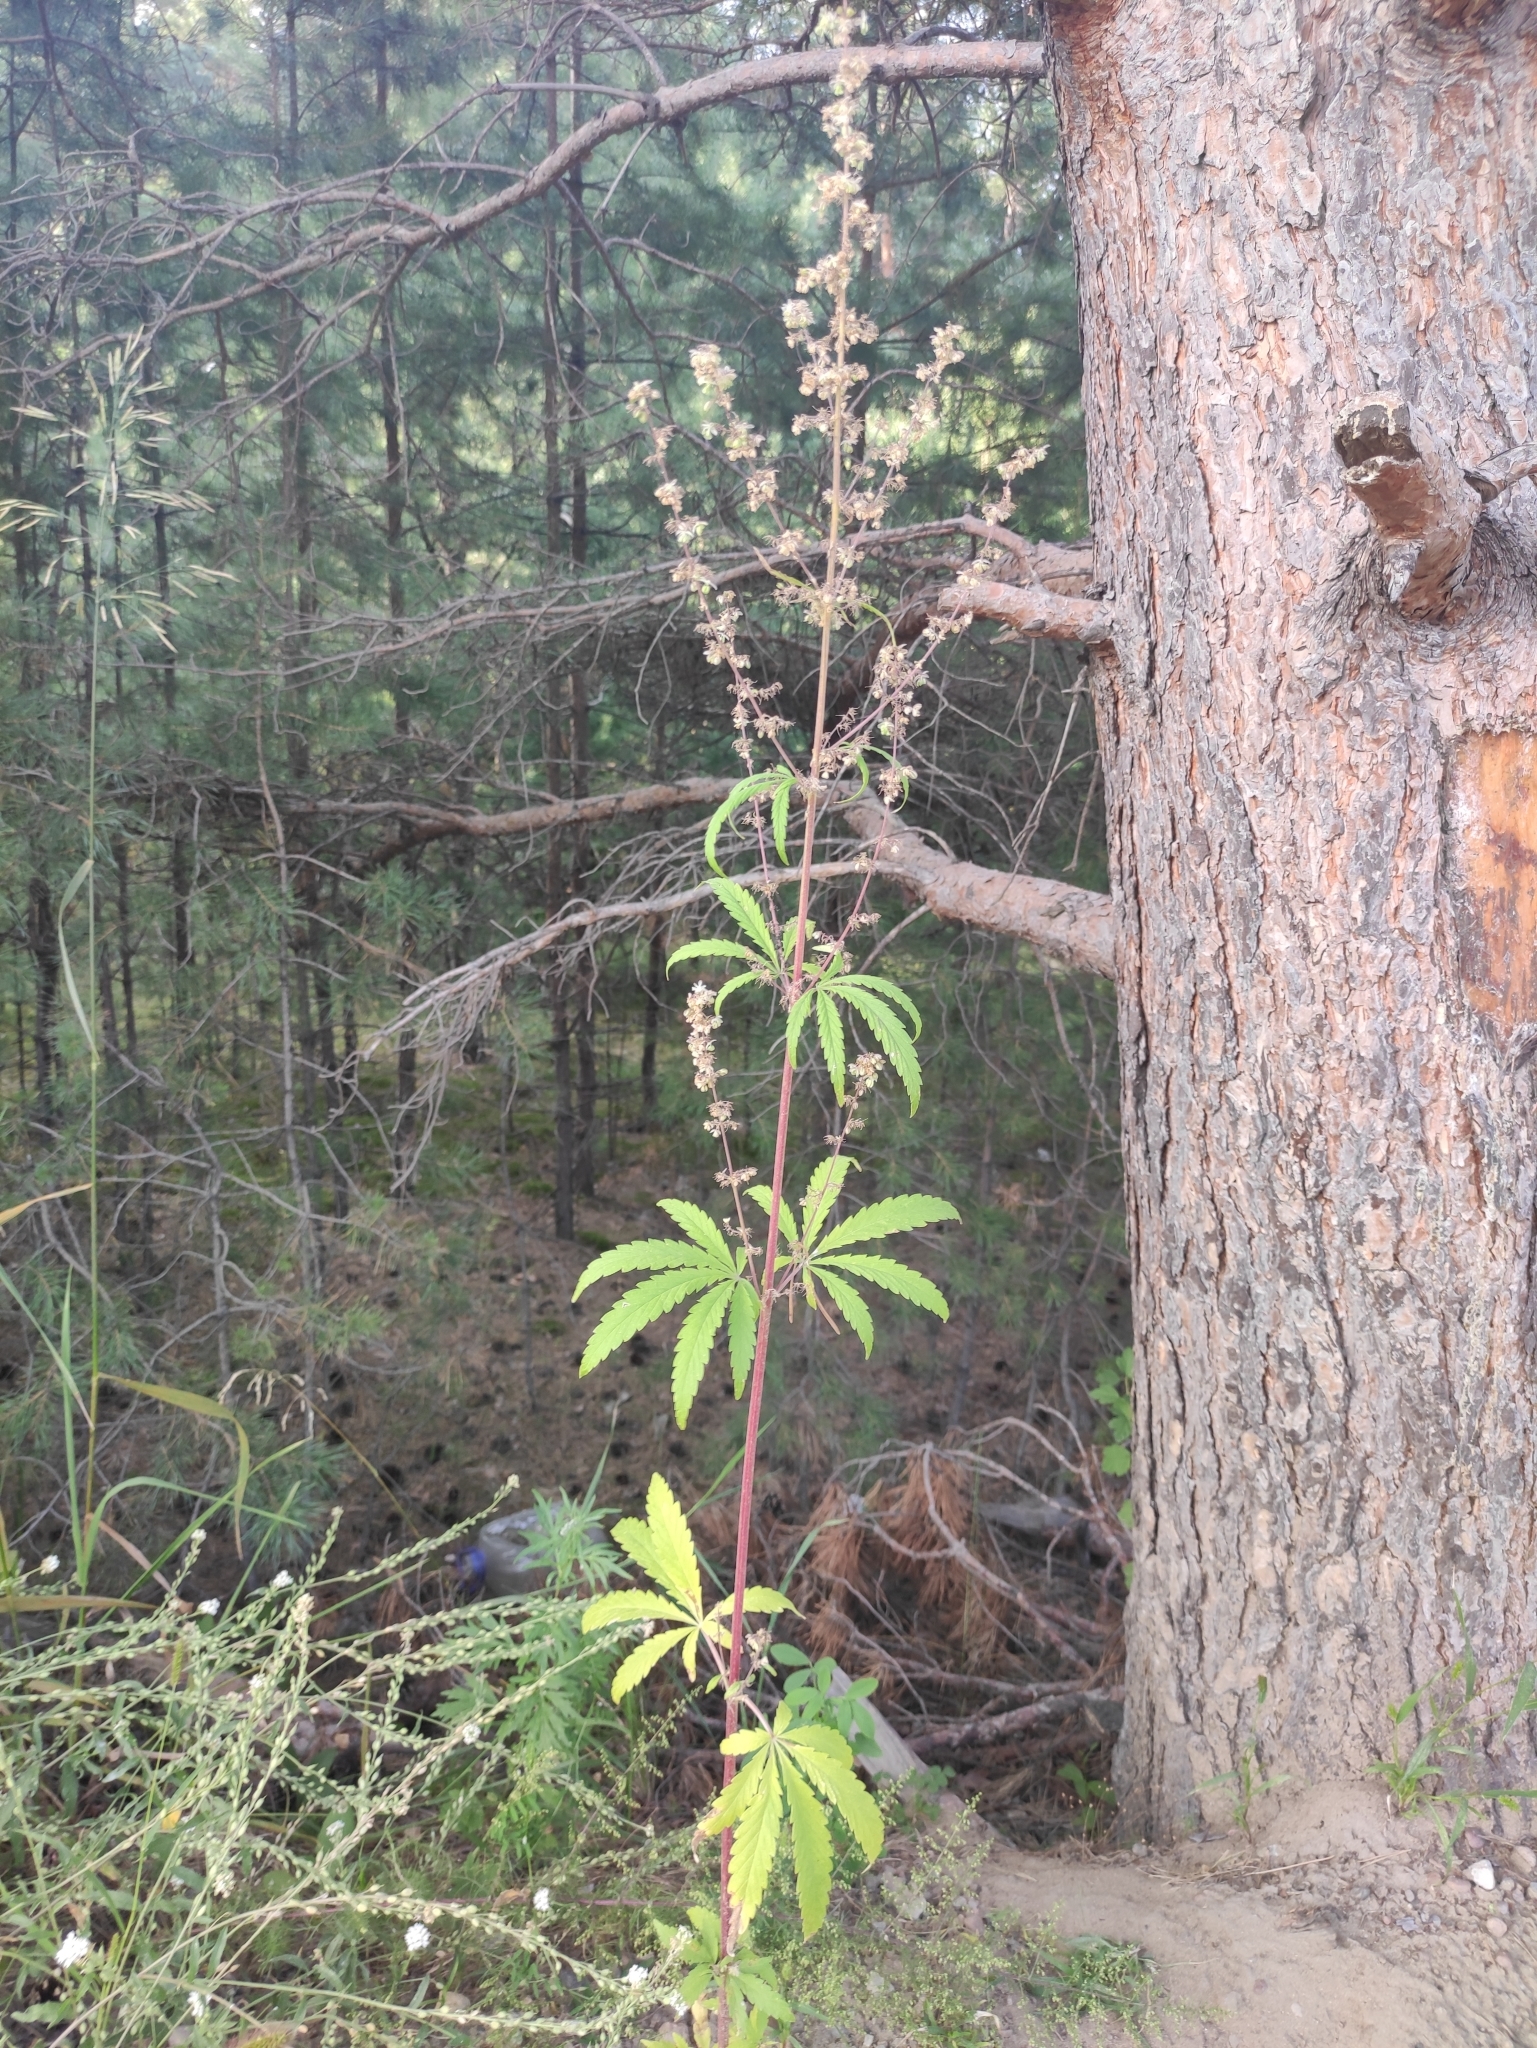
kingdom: Plantae
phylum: Tracheophyta
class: Magnoliopsida
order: Rosales
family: Cannabaceae
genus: Cannabis
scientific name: Cannabis sativa
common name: Hemp
